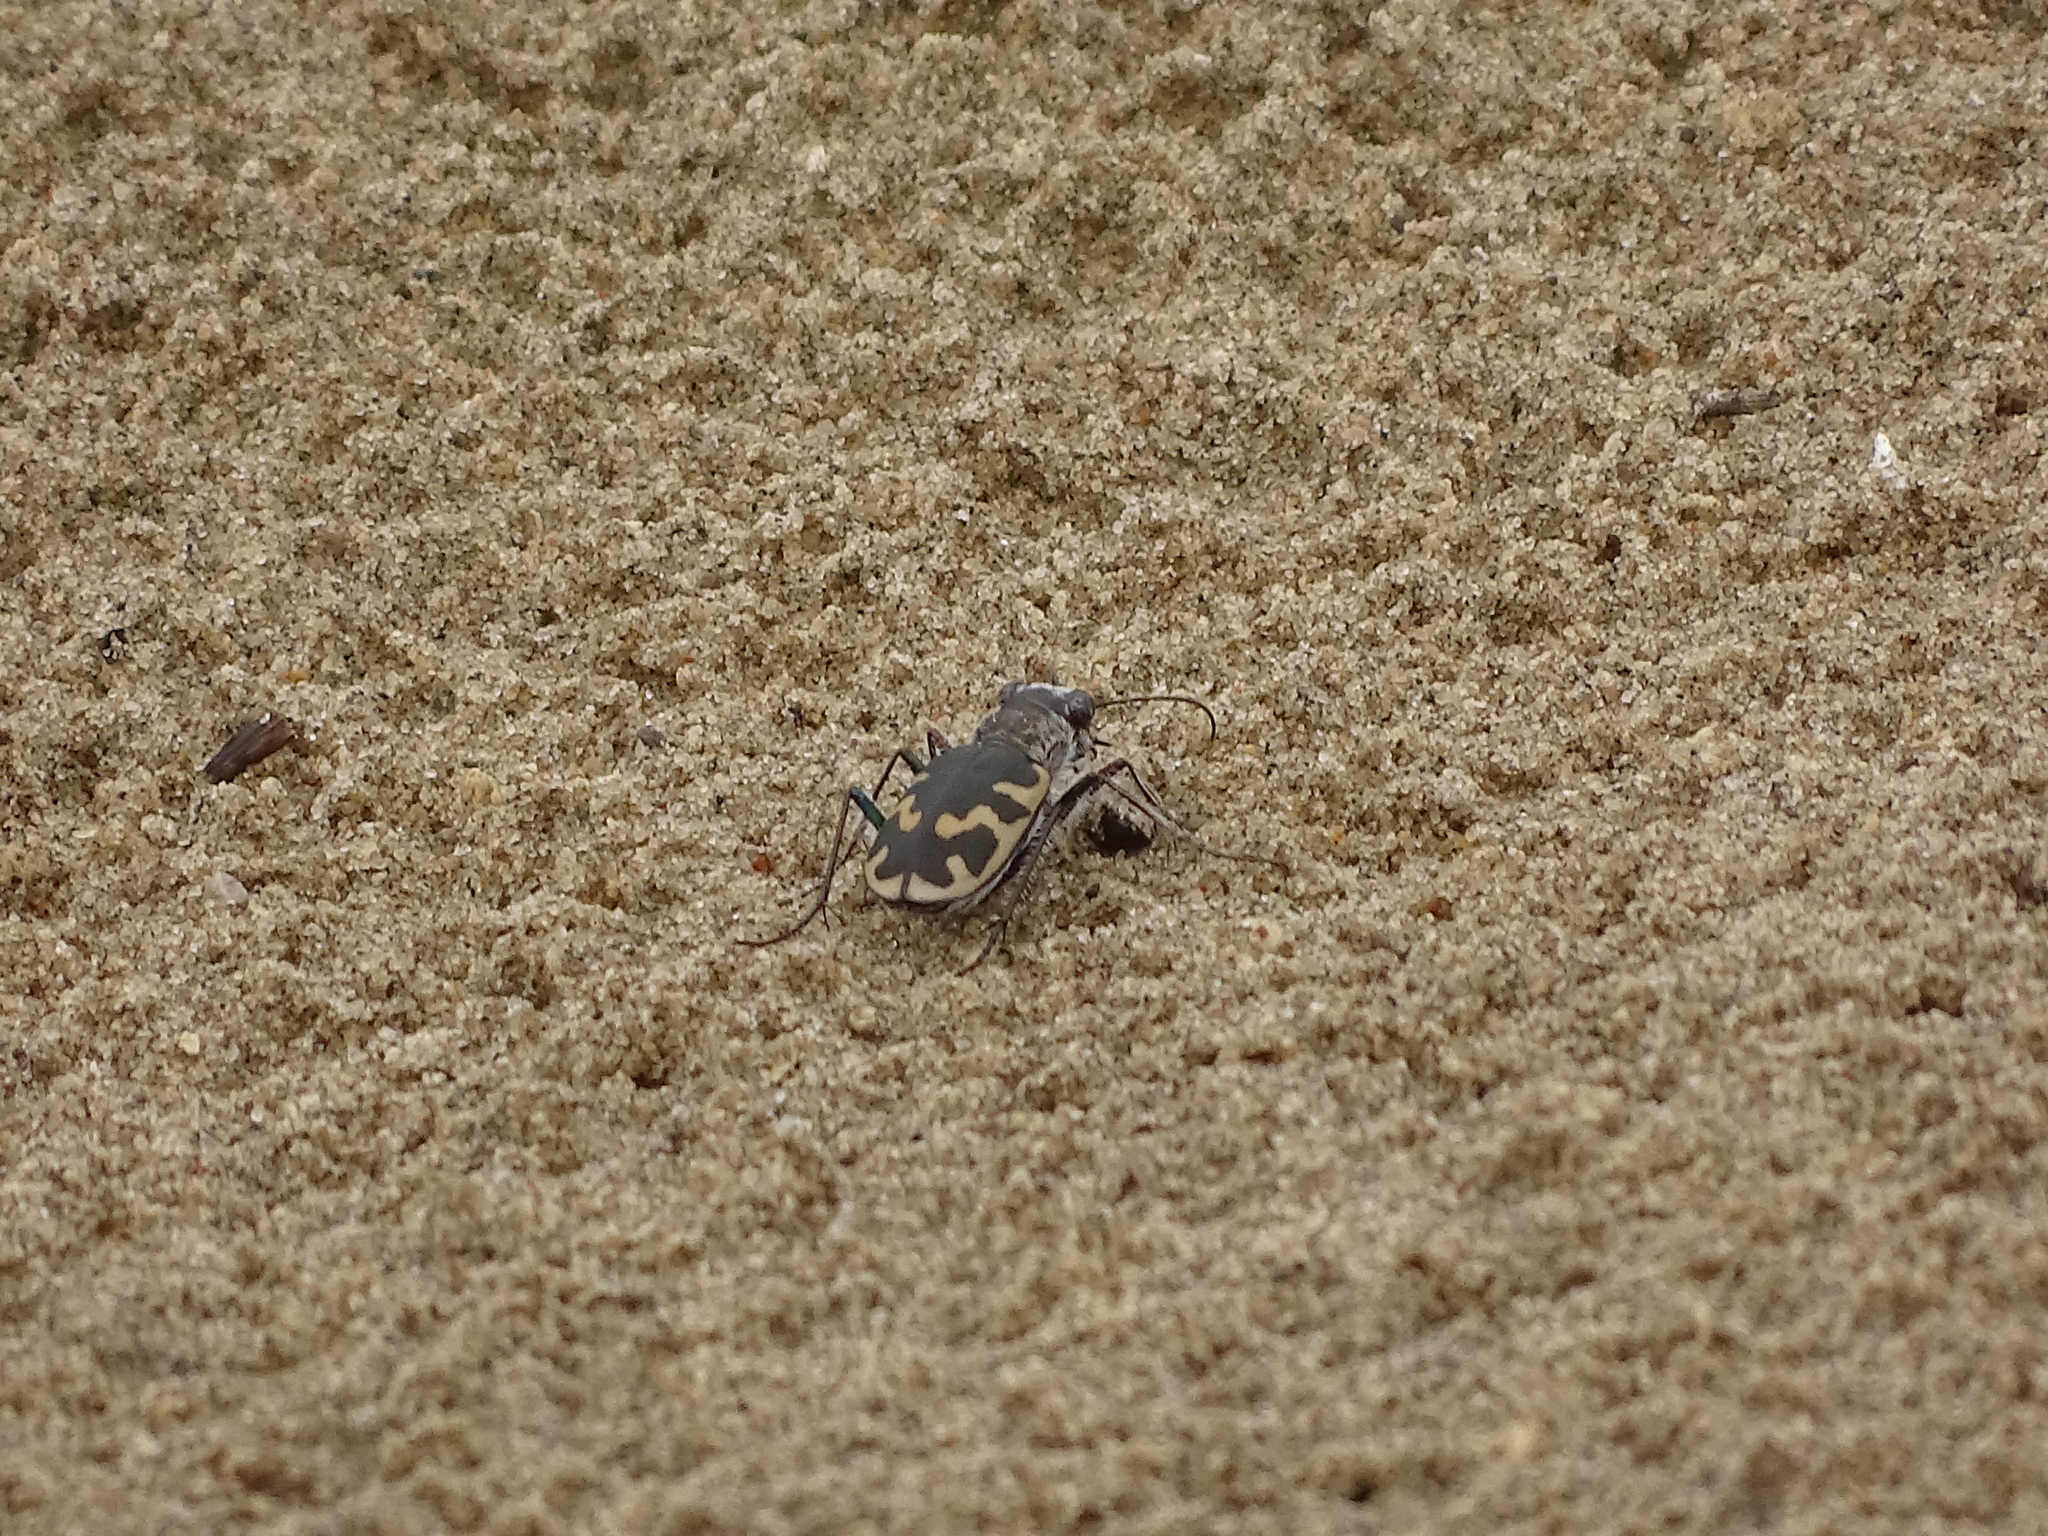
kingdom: Animalia
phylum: Arthropoda
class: Insecta
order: Coleoptera
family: Carabidae
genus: Cicindela
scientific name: Cicindela formosa
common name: Big sand tiger beetle
